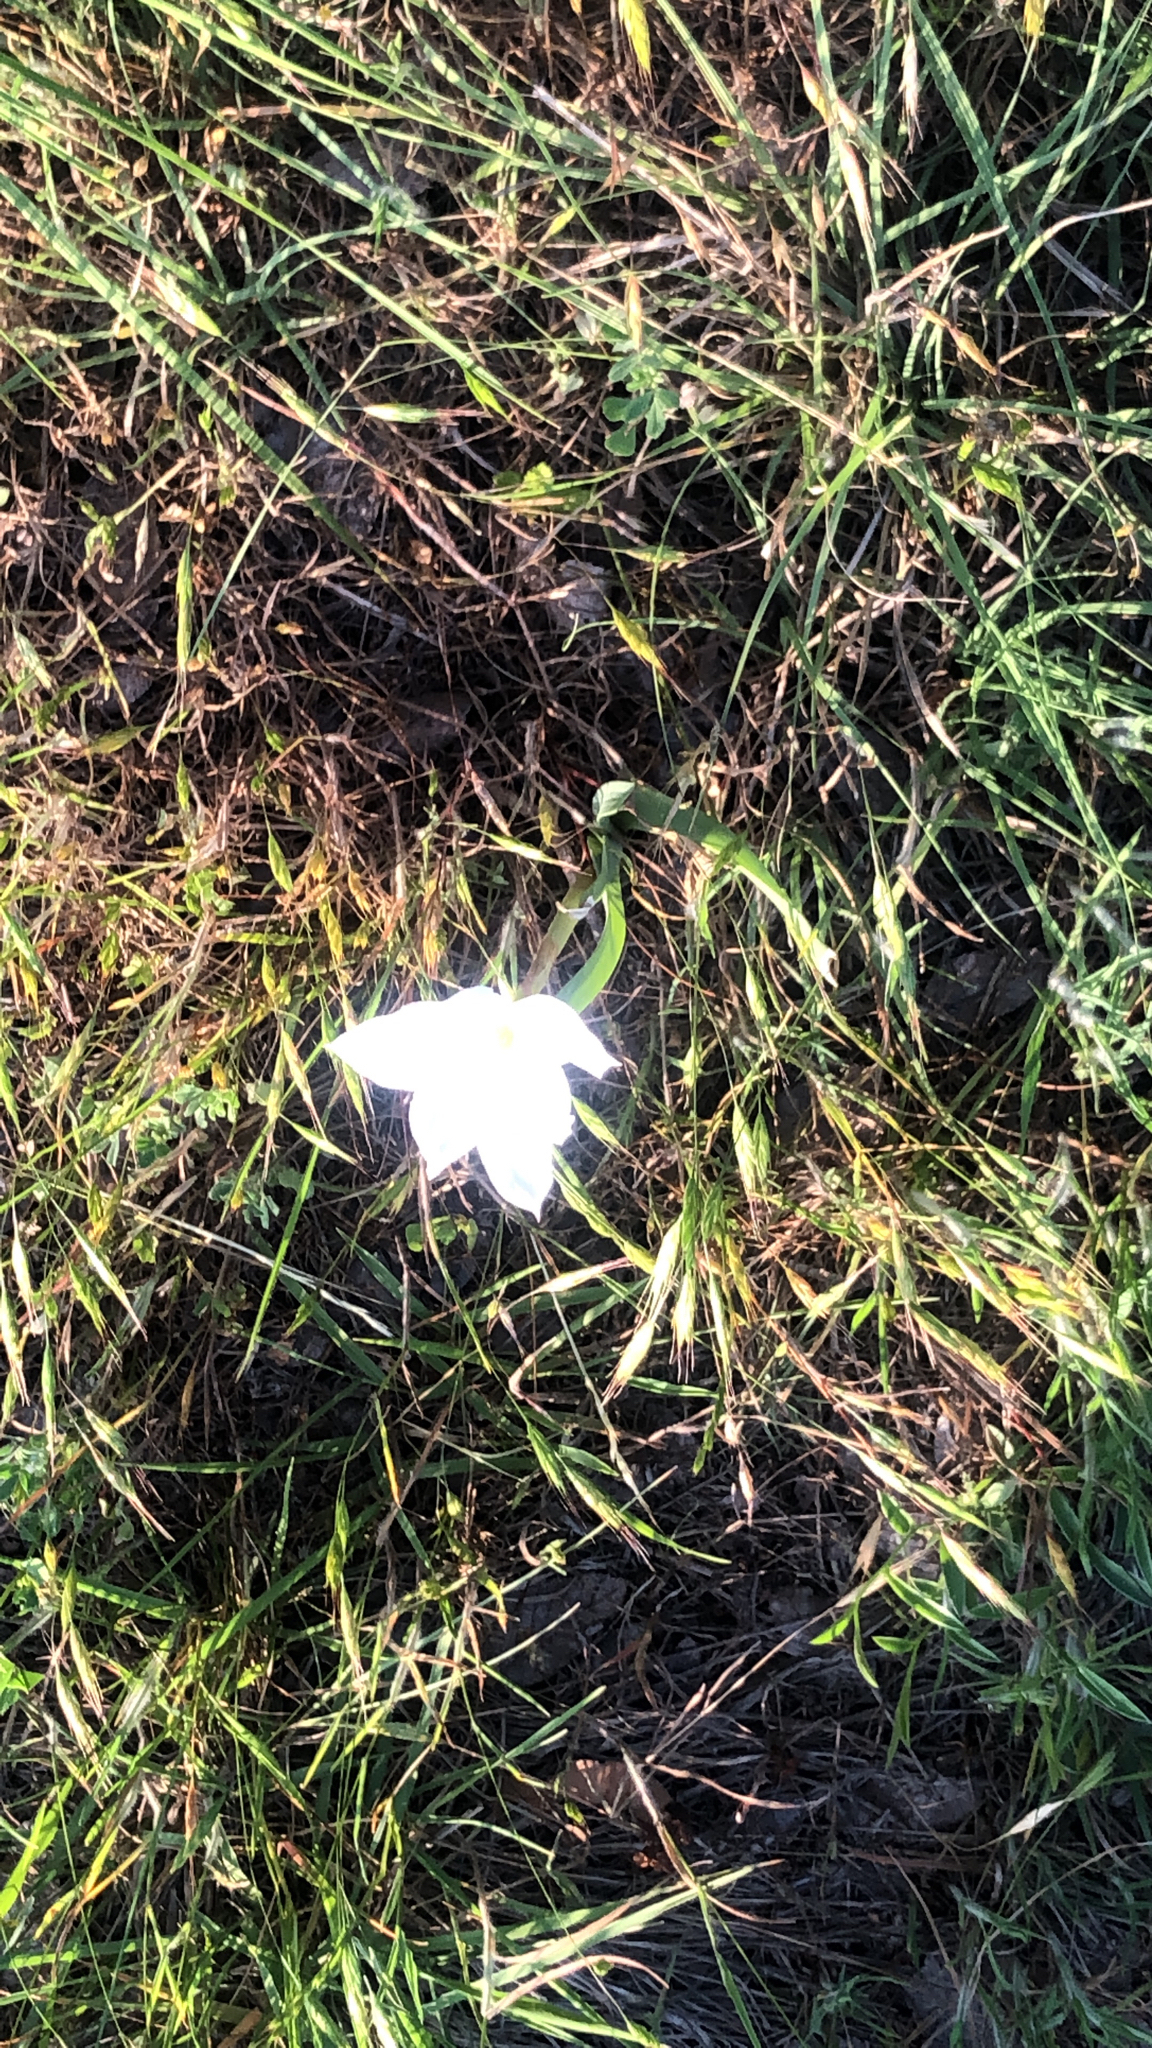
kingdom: Plantae
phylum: Tracheophyta
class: Liliopsida
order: Asparagales
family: Amaryllidaceae
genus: Zephyranthes
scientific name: Zephyranthes drummondii
